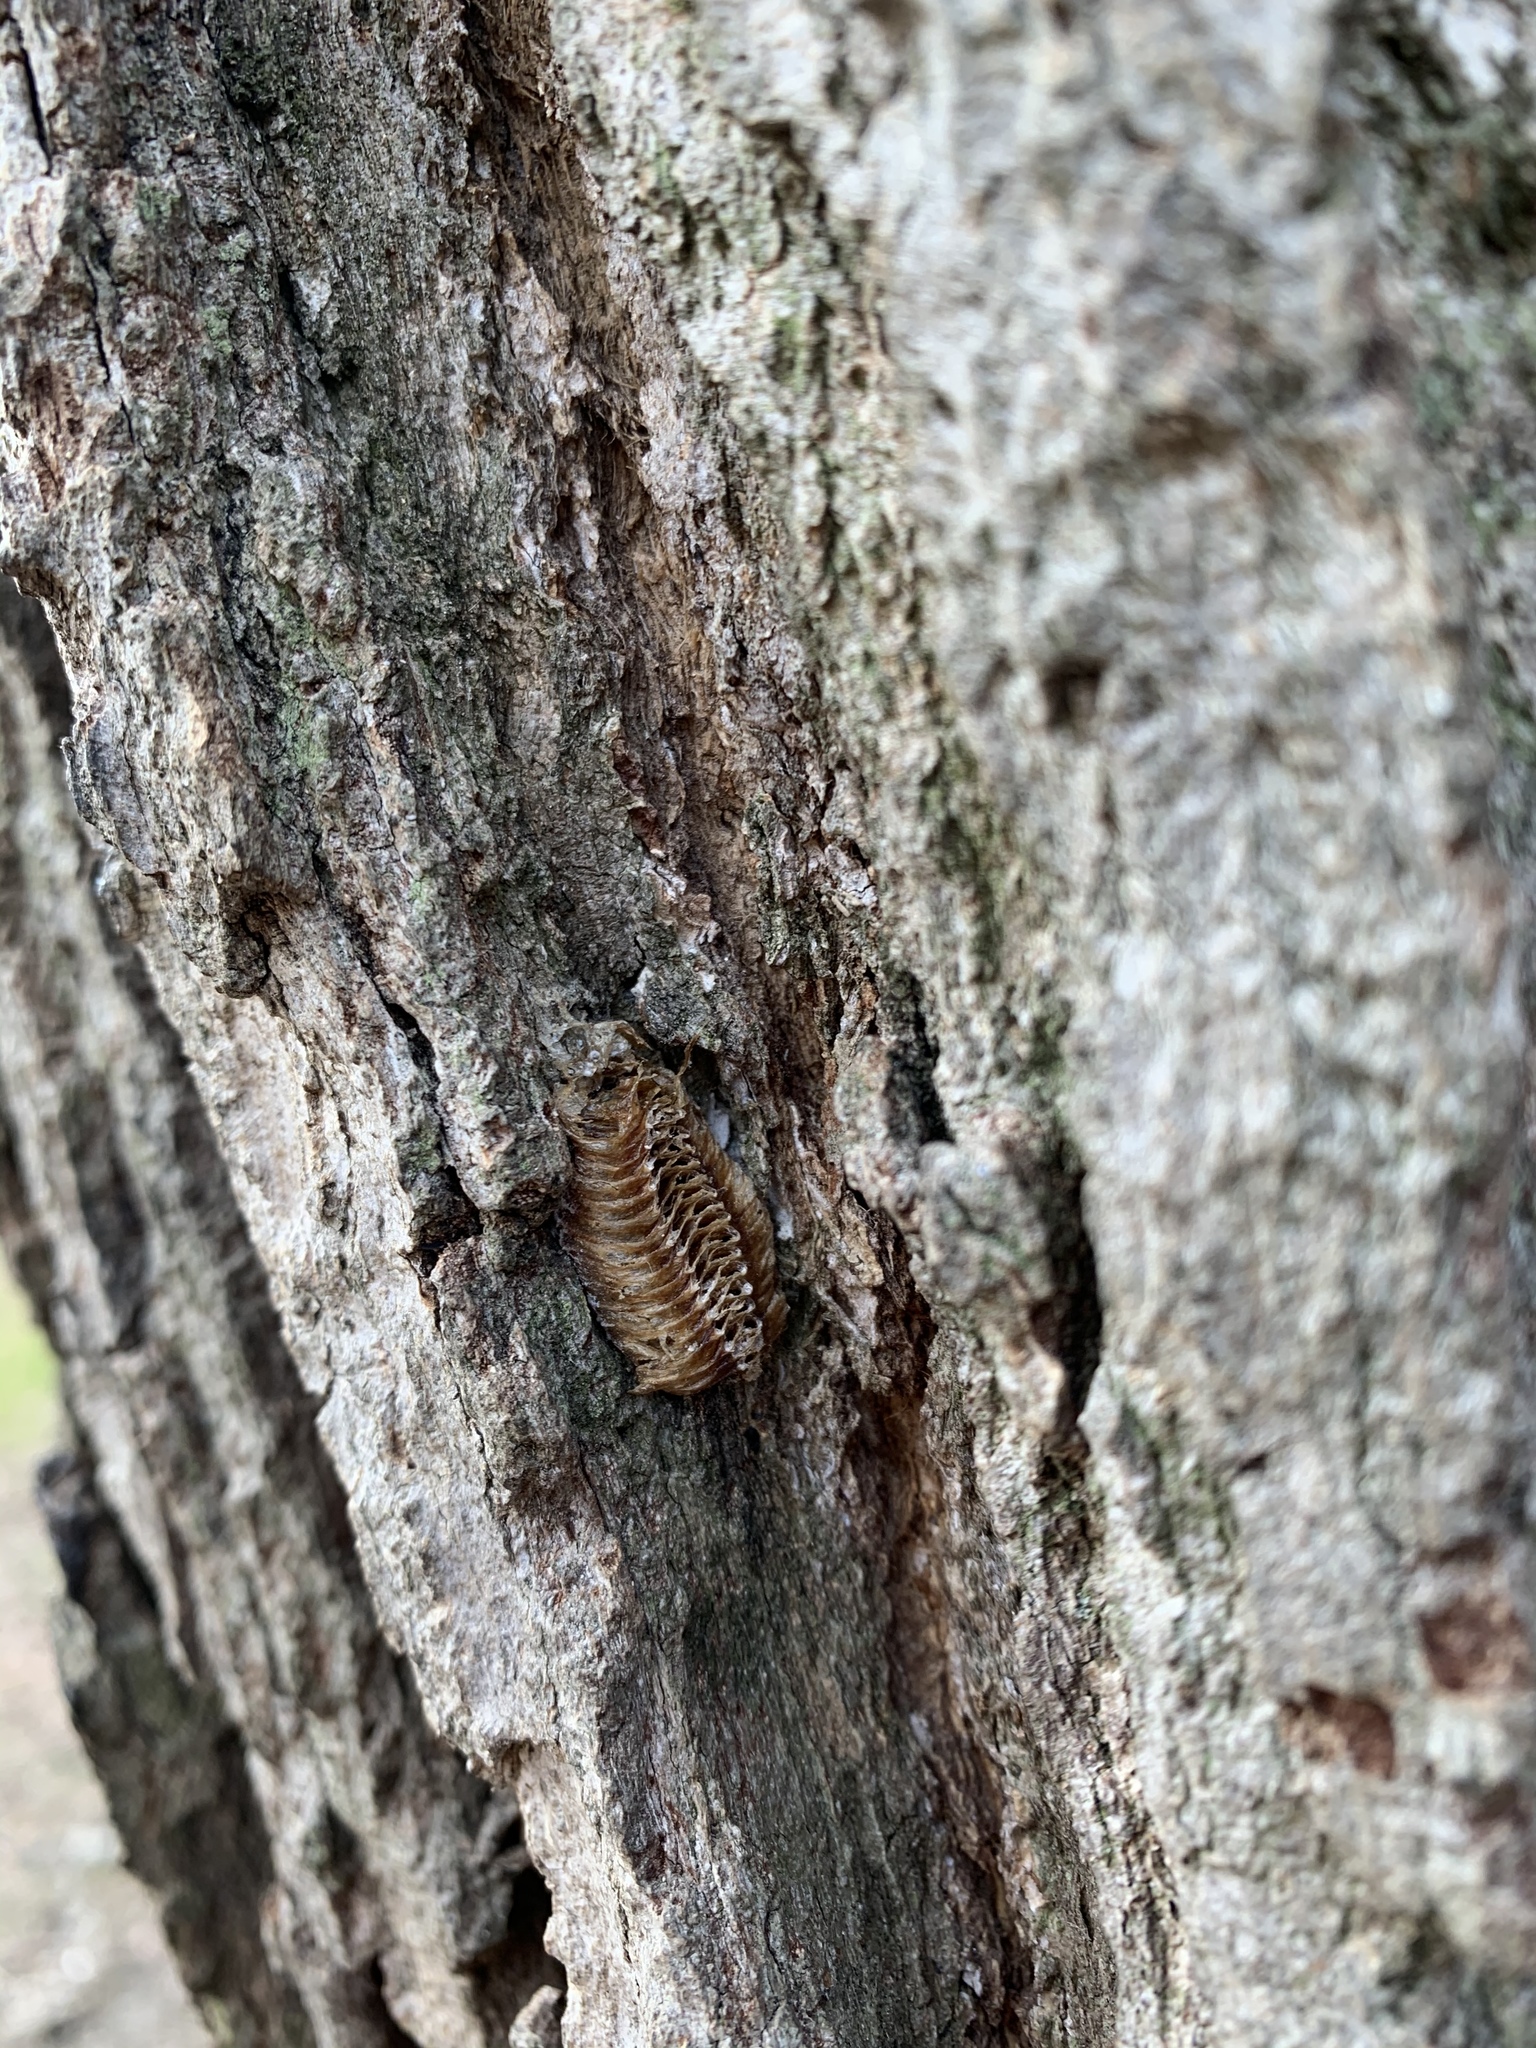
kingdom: Animalia
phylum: Arthropoda
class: Insecta
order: Mantodea
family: Mantidae
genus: Mantis
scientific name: Mantis religiosa
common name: Praying mantis
